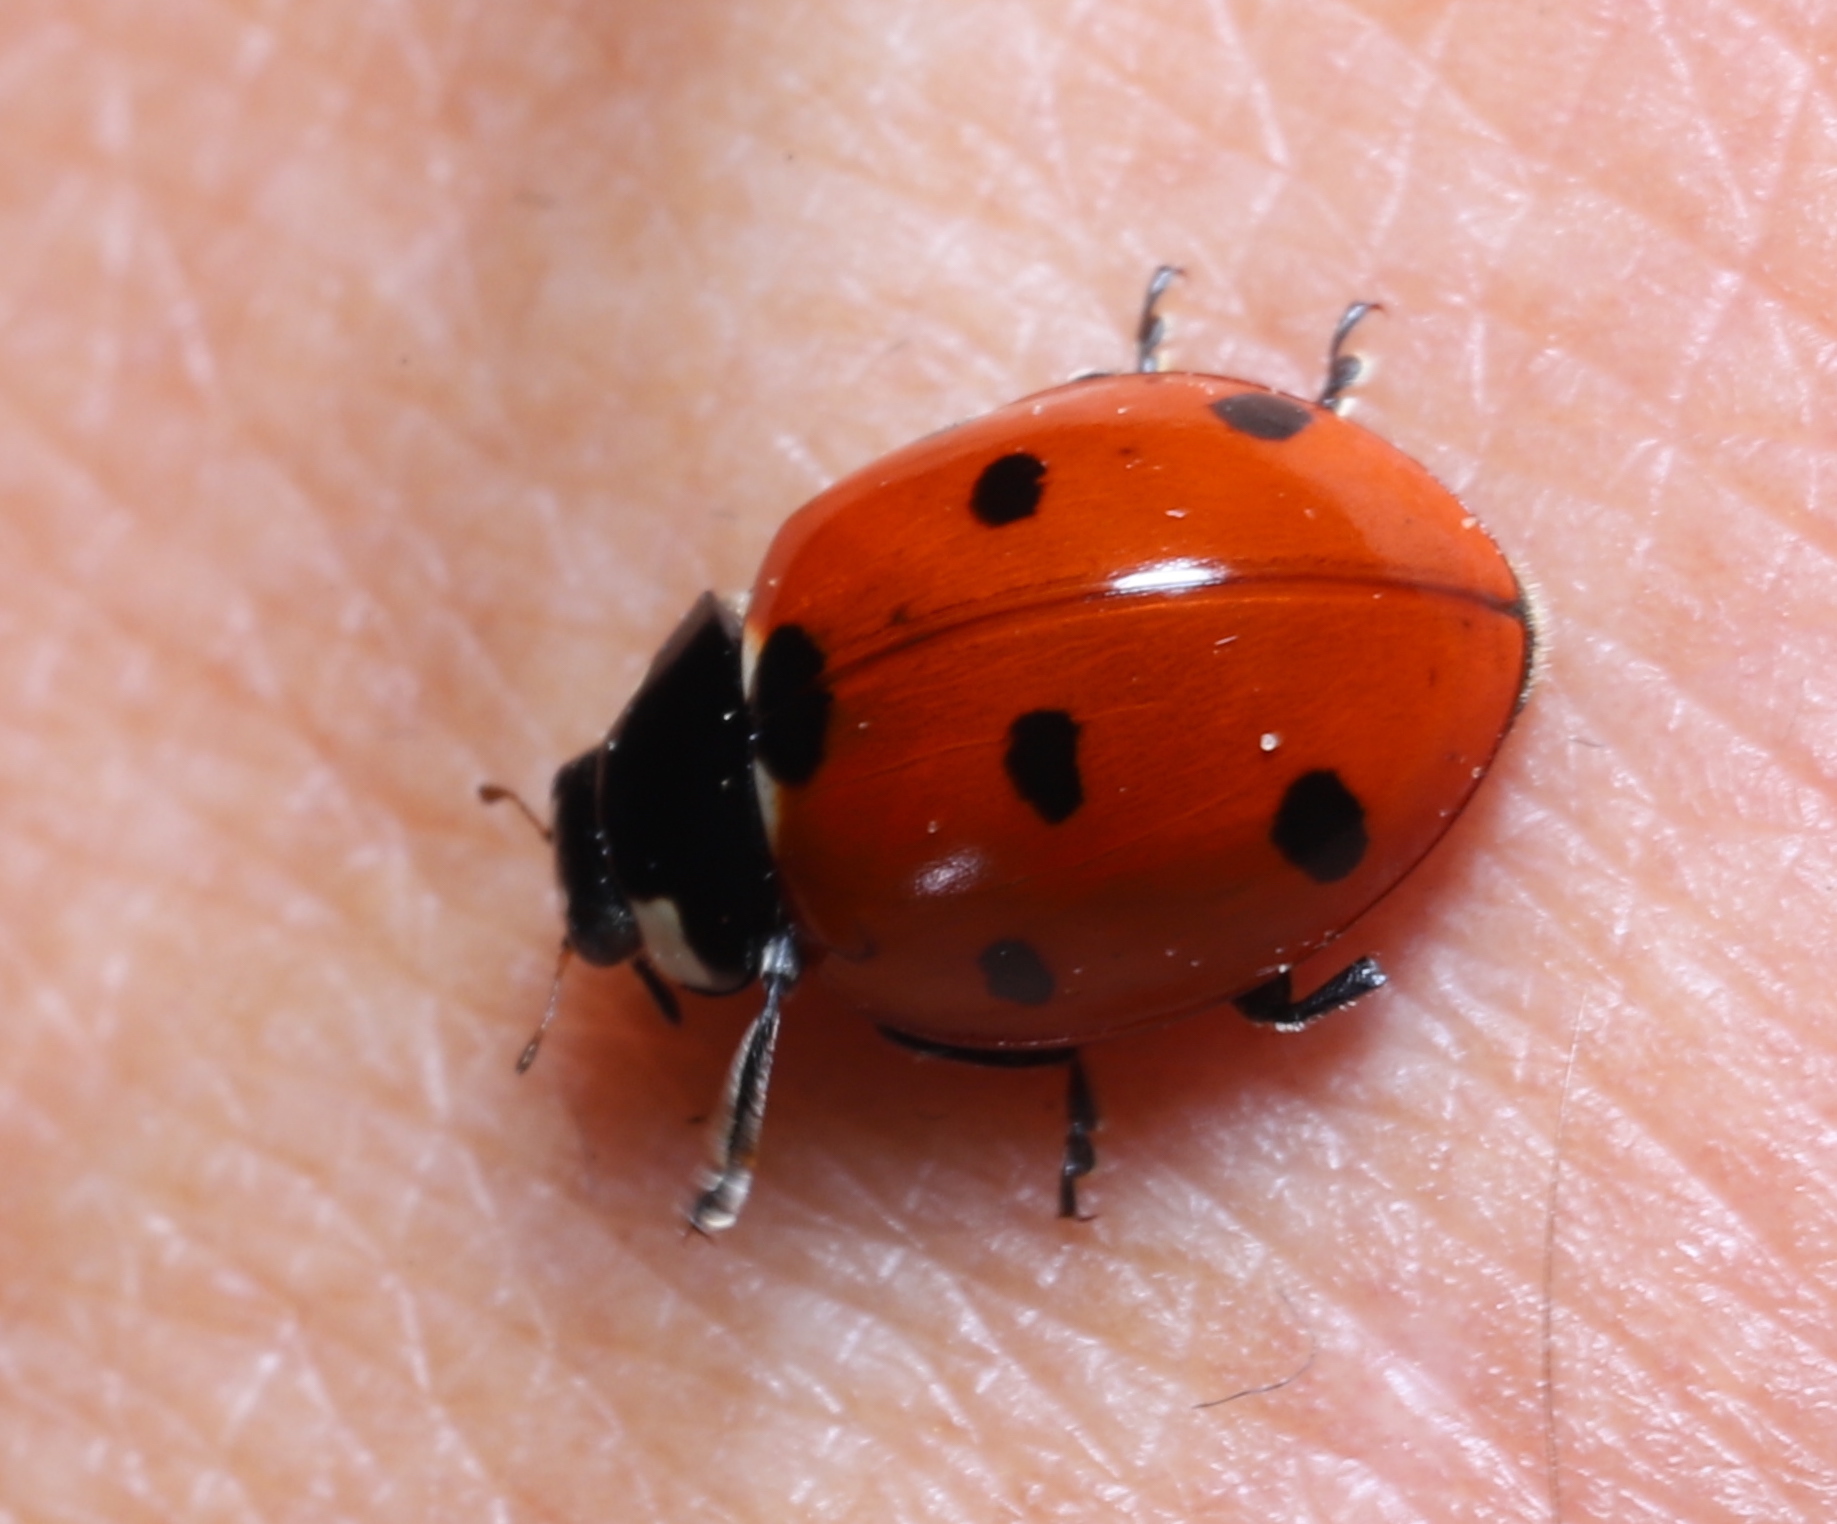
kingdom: Animalia
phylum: Arthropoda
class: Insecta
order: Coleoptera
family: Coccinellidae
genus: Coccinella
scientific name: Coccinella septempunctata
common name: Sevenspotted lady beetle
